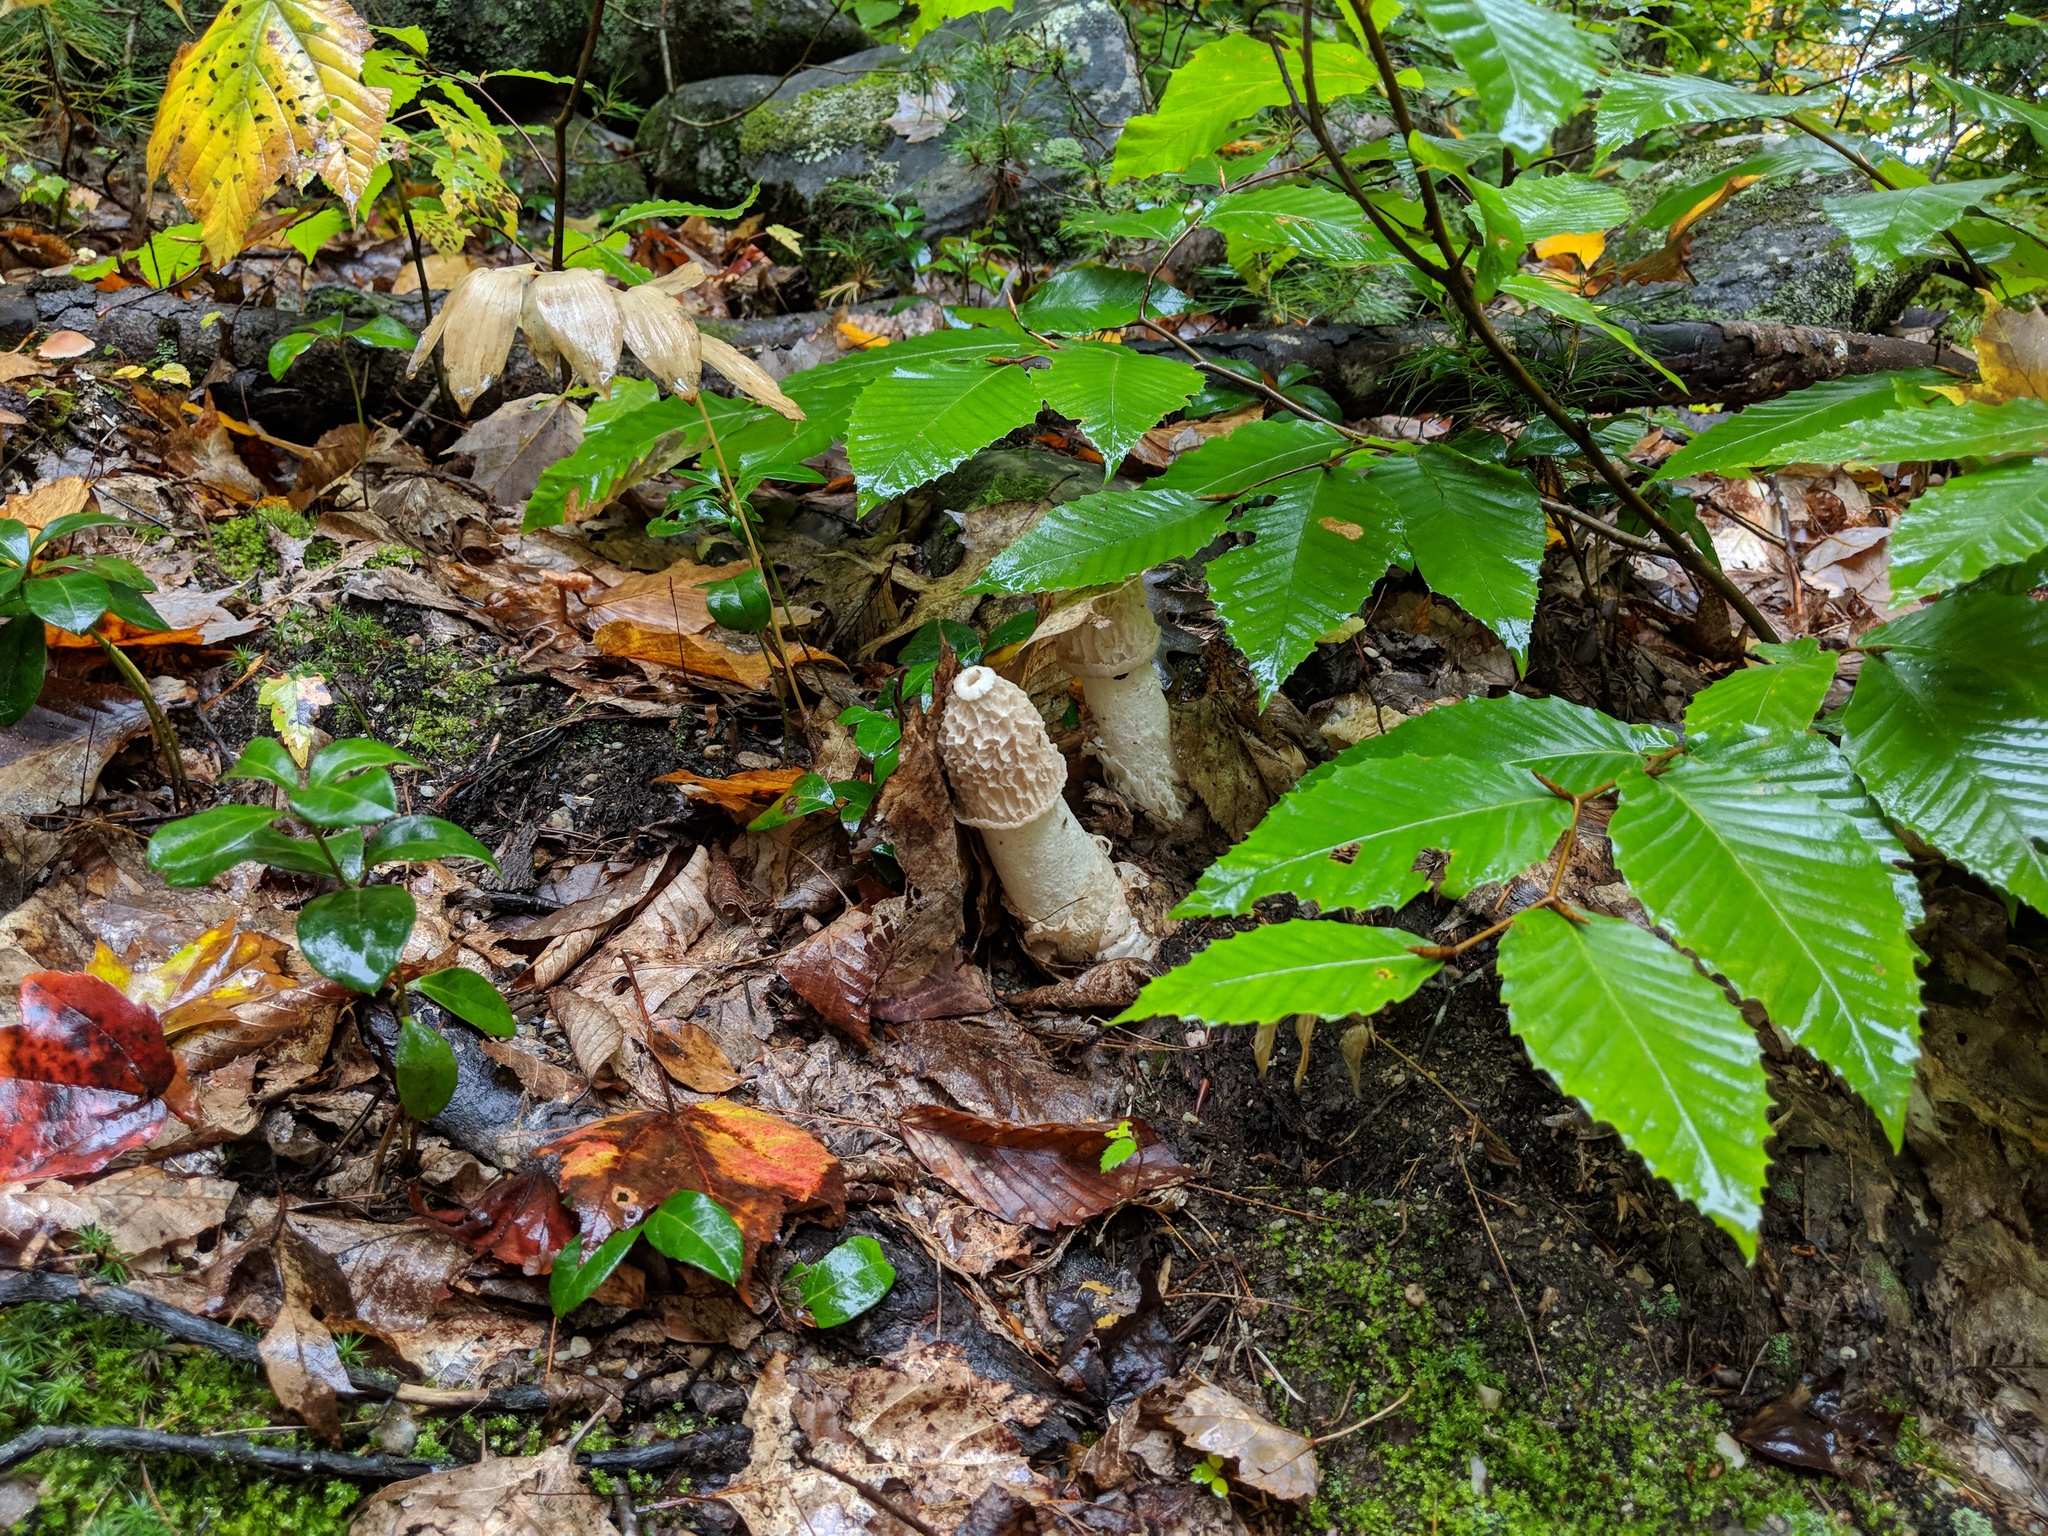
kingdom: Fungi
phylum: Basidiomycota
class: Agaricomycetes
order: Phallales
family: Phallaceae
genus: Phallus
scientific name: Phallus indusiatus
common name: Bridal veil stinkhorn
